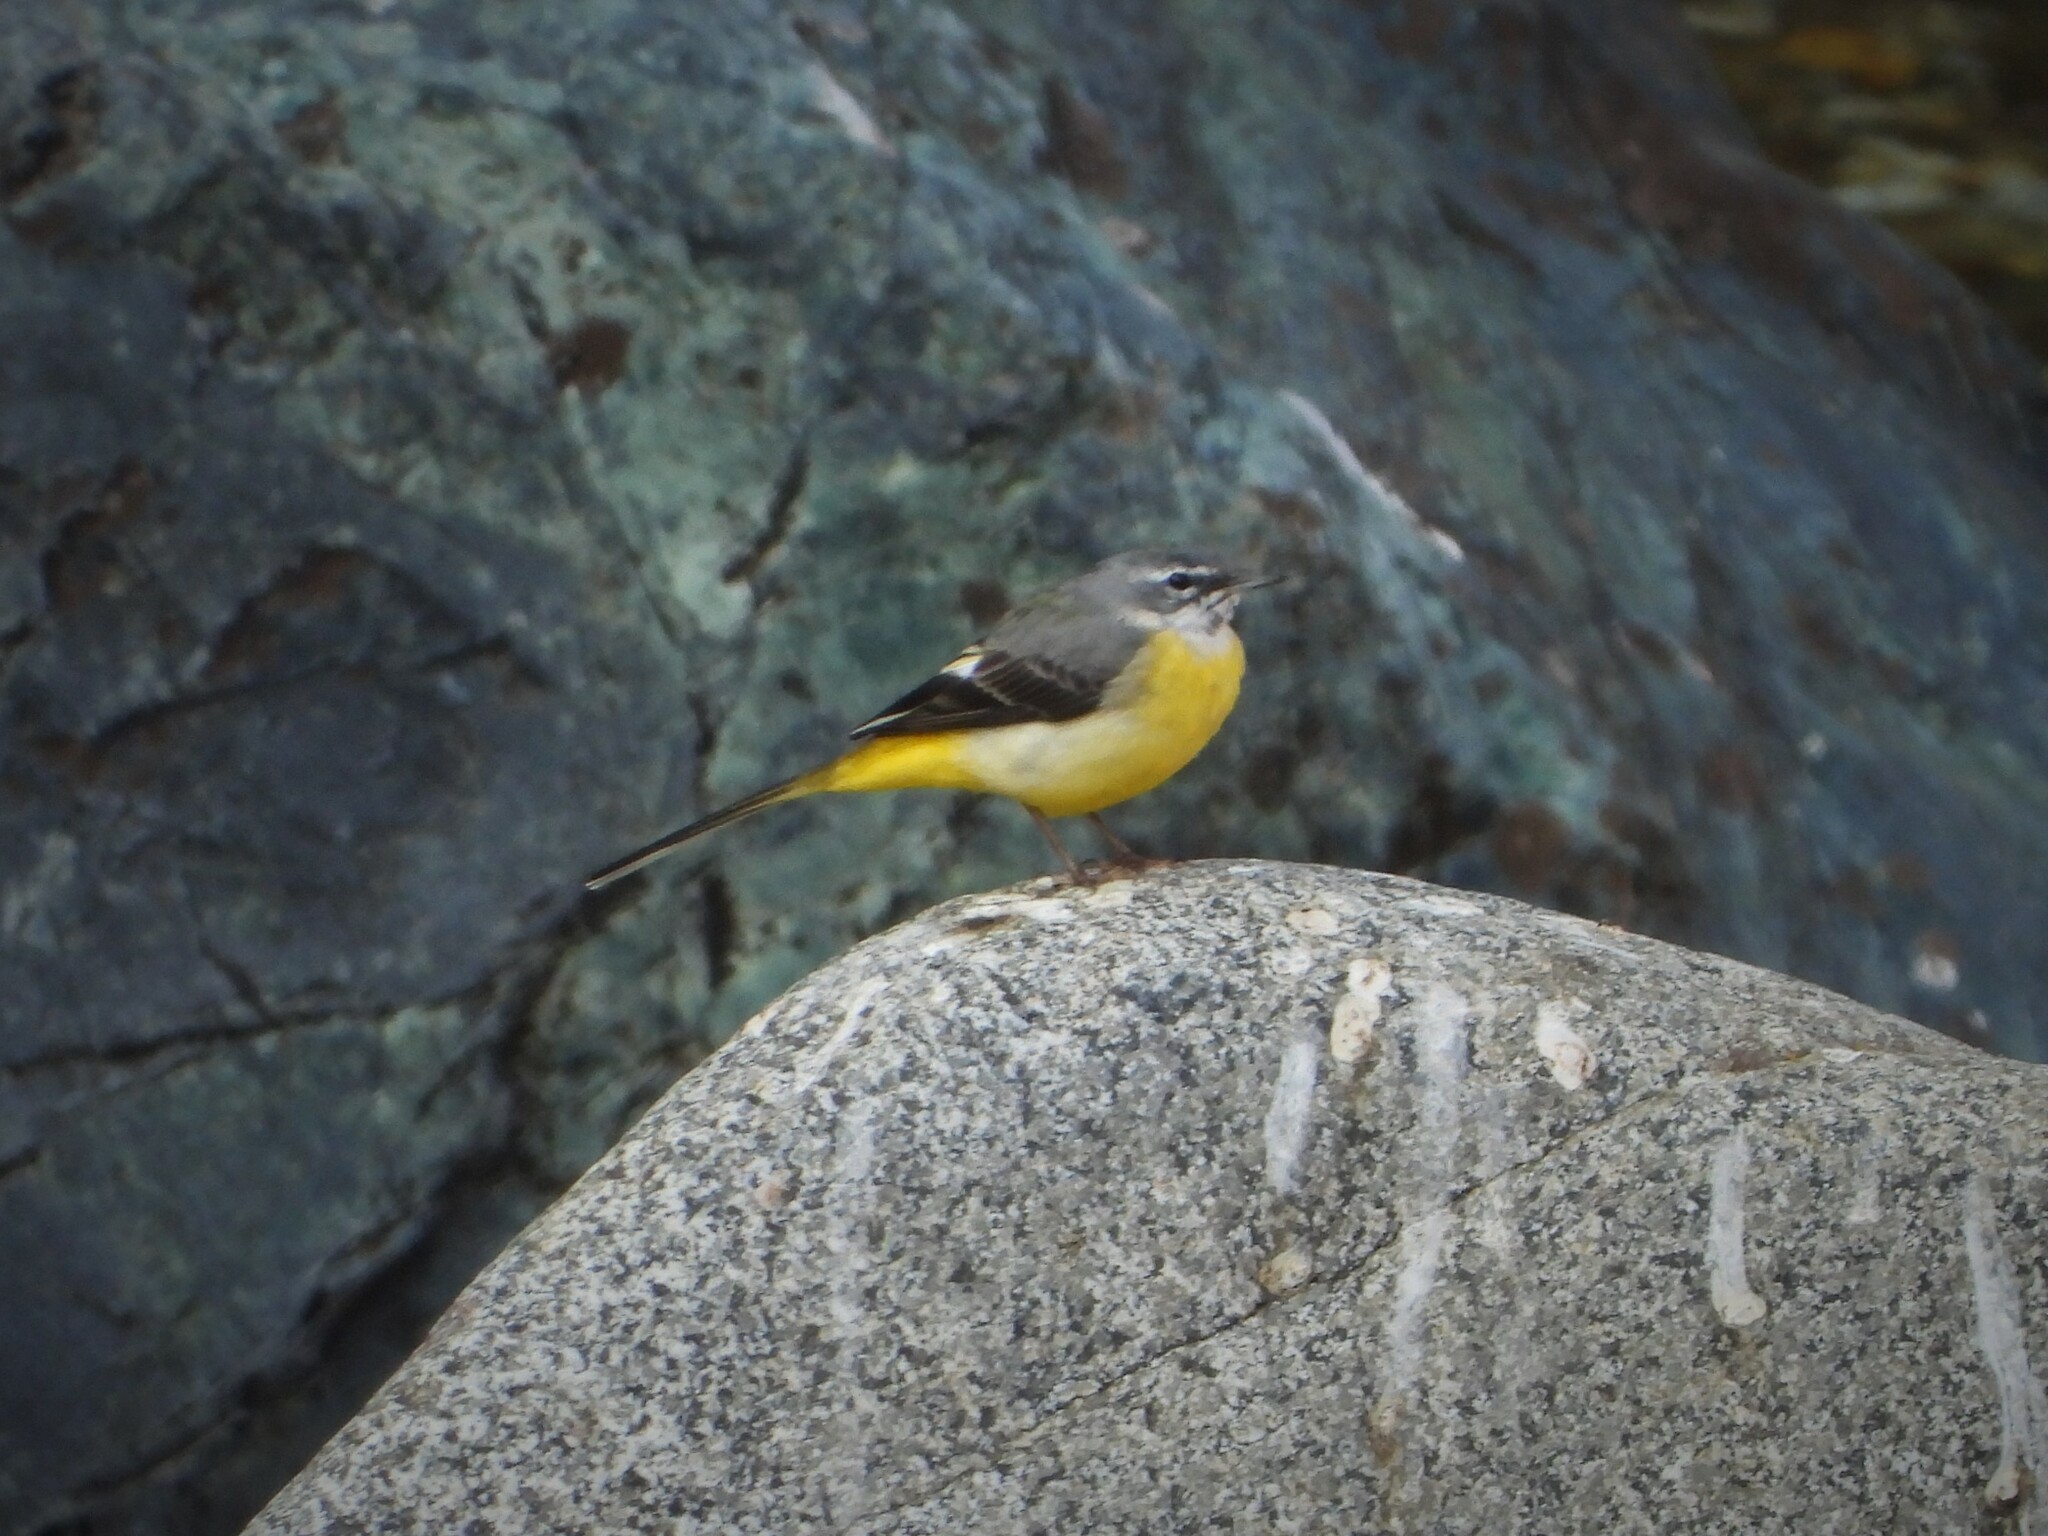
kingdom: Animalia
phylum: Chordata
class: Aves
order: Passeriformes
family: Motacillidae
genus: Motacilla
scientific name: Motacilla cinerea
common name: Grey wagtail
